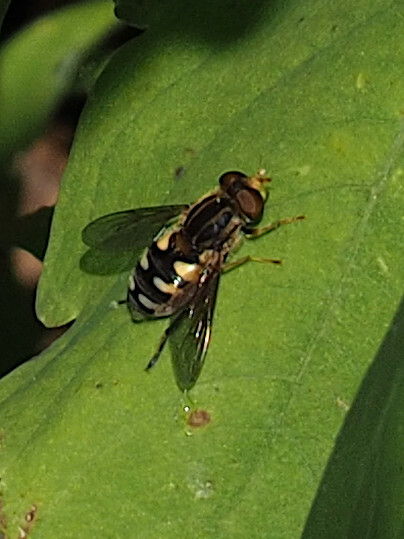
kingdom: Animalia
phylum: Arthropoda
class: Insecta
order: Diptera
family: Syrphidae
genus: Parhelophilus
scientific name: Parhelophilus flavifacies
